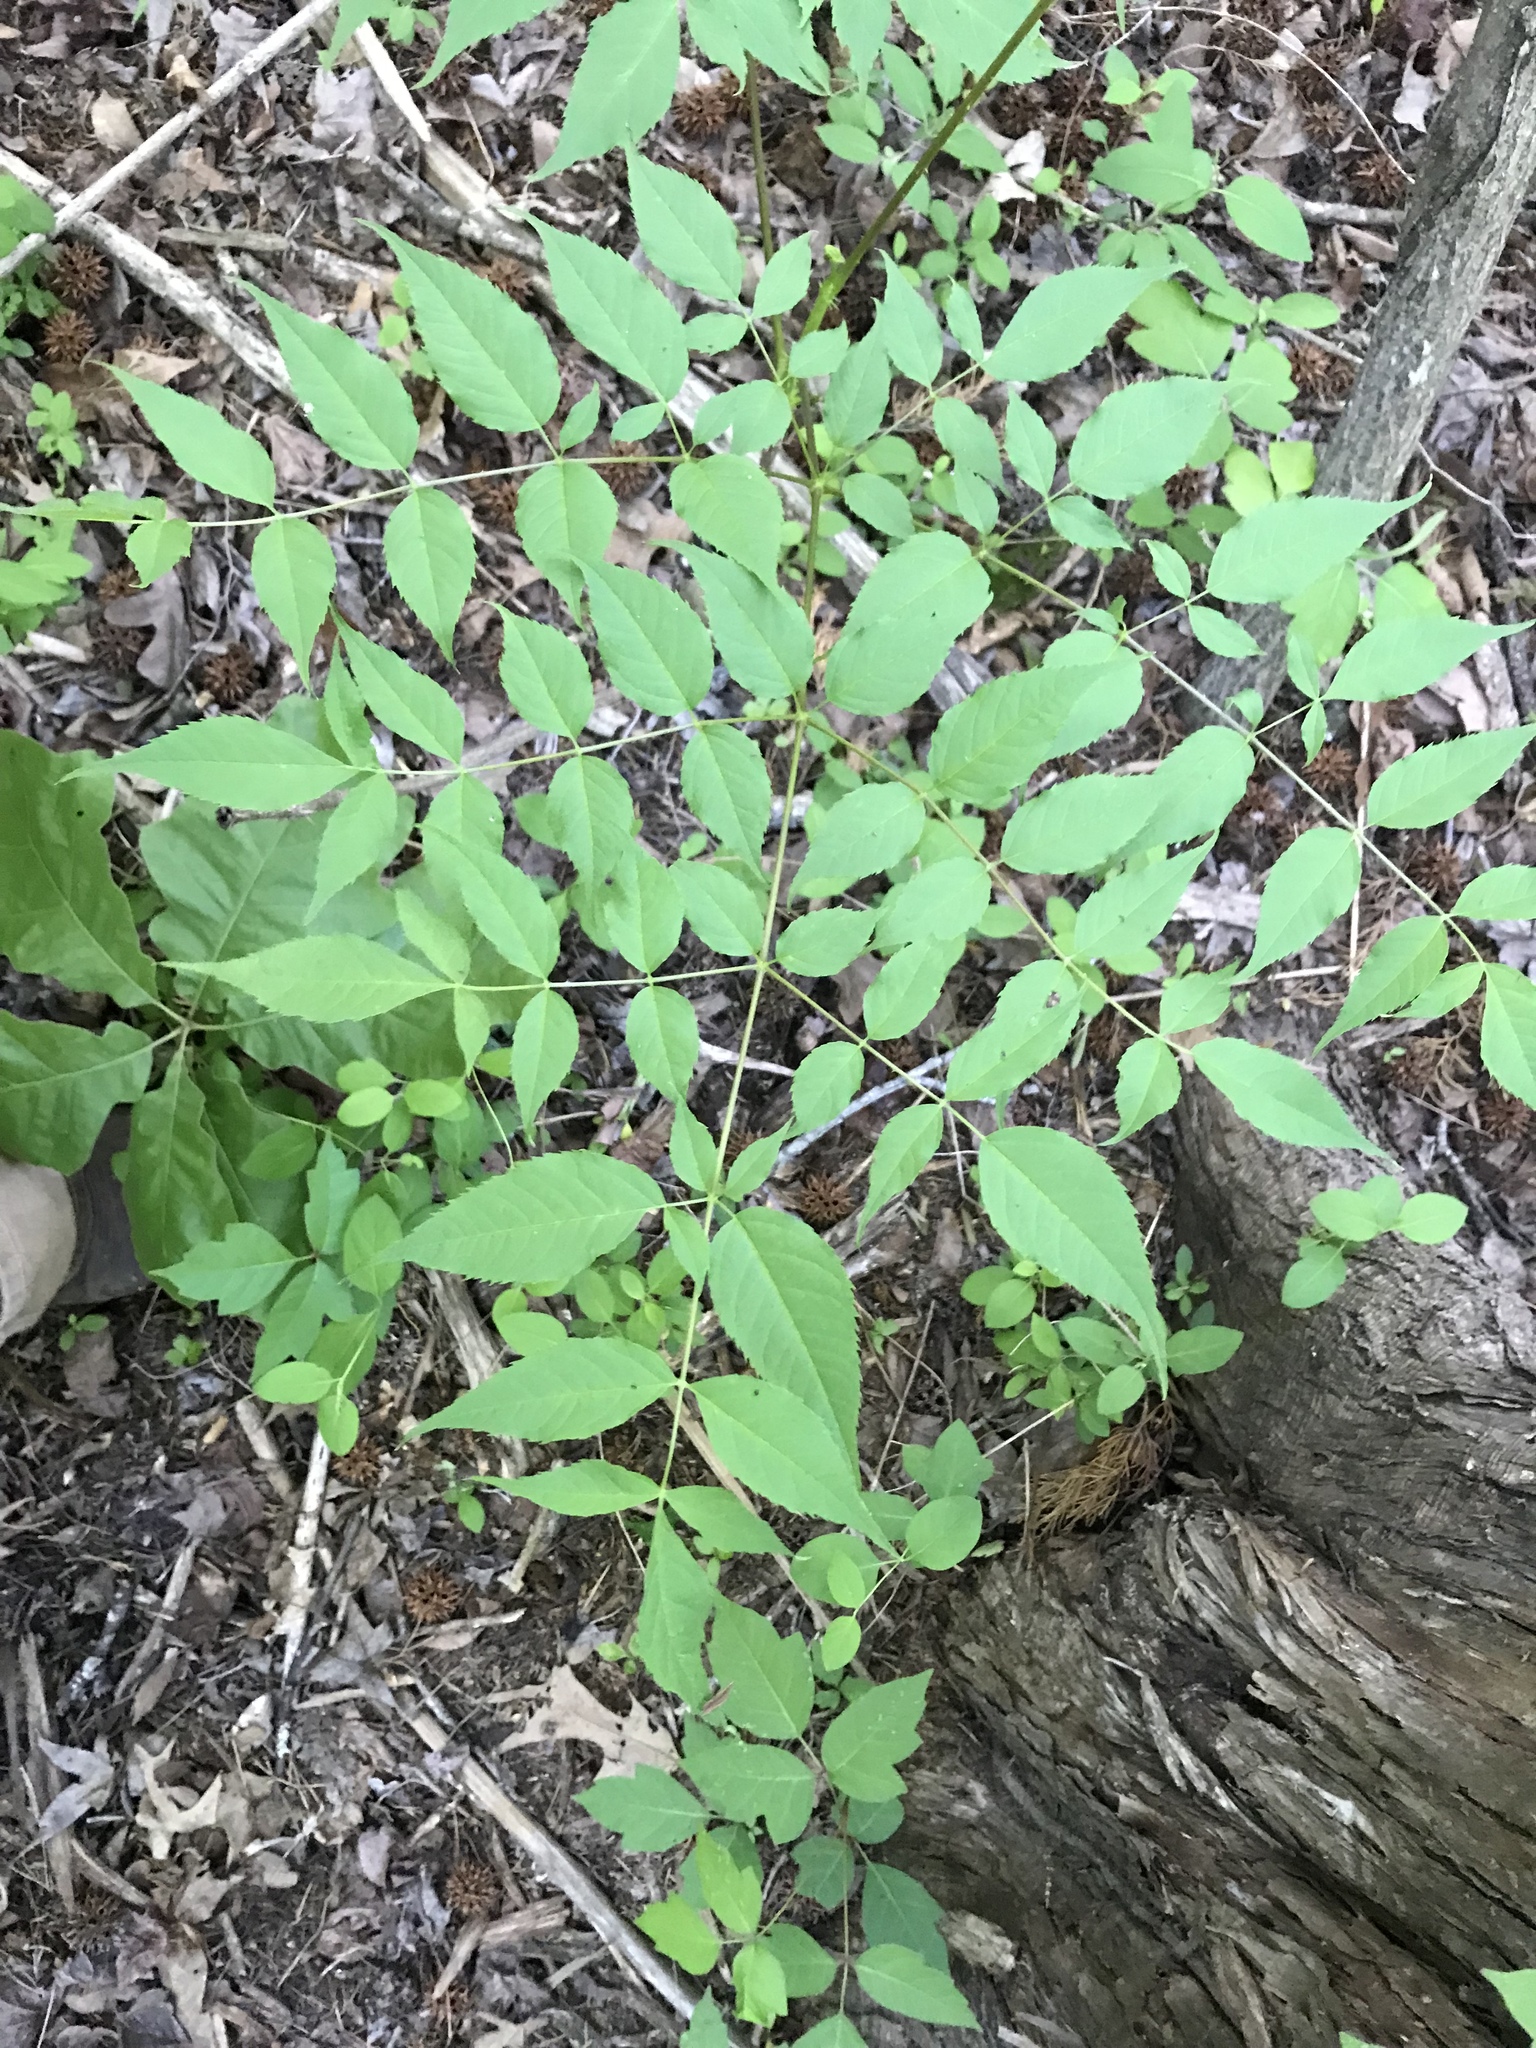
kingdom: Plantae
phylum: Tracheophyta
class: Magnoliopsida
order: Apiales
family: Araliaceae
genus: Aralia
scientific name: Aralia spinosa
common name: Hercules'-club
